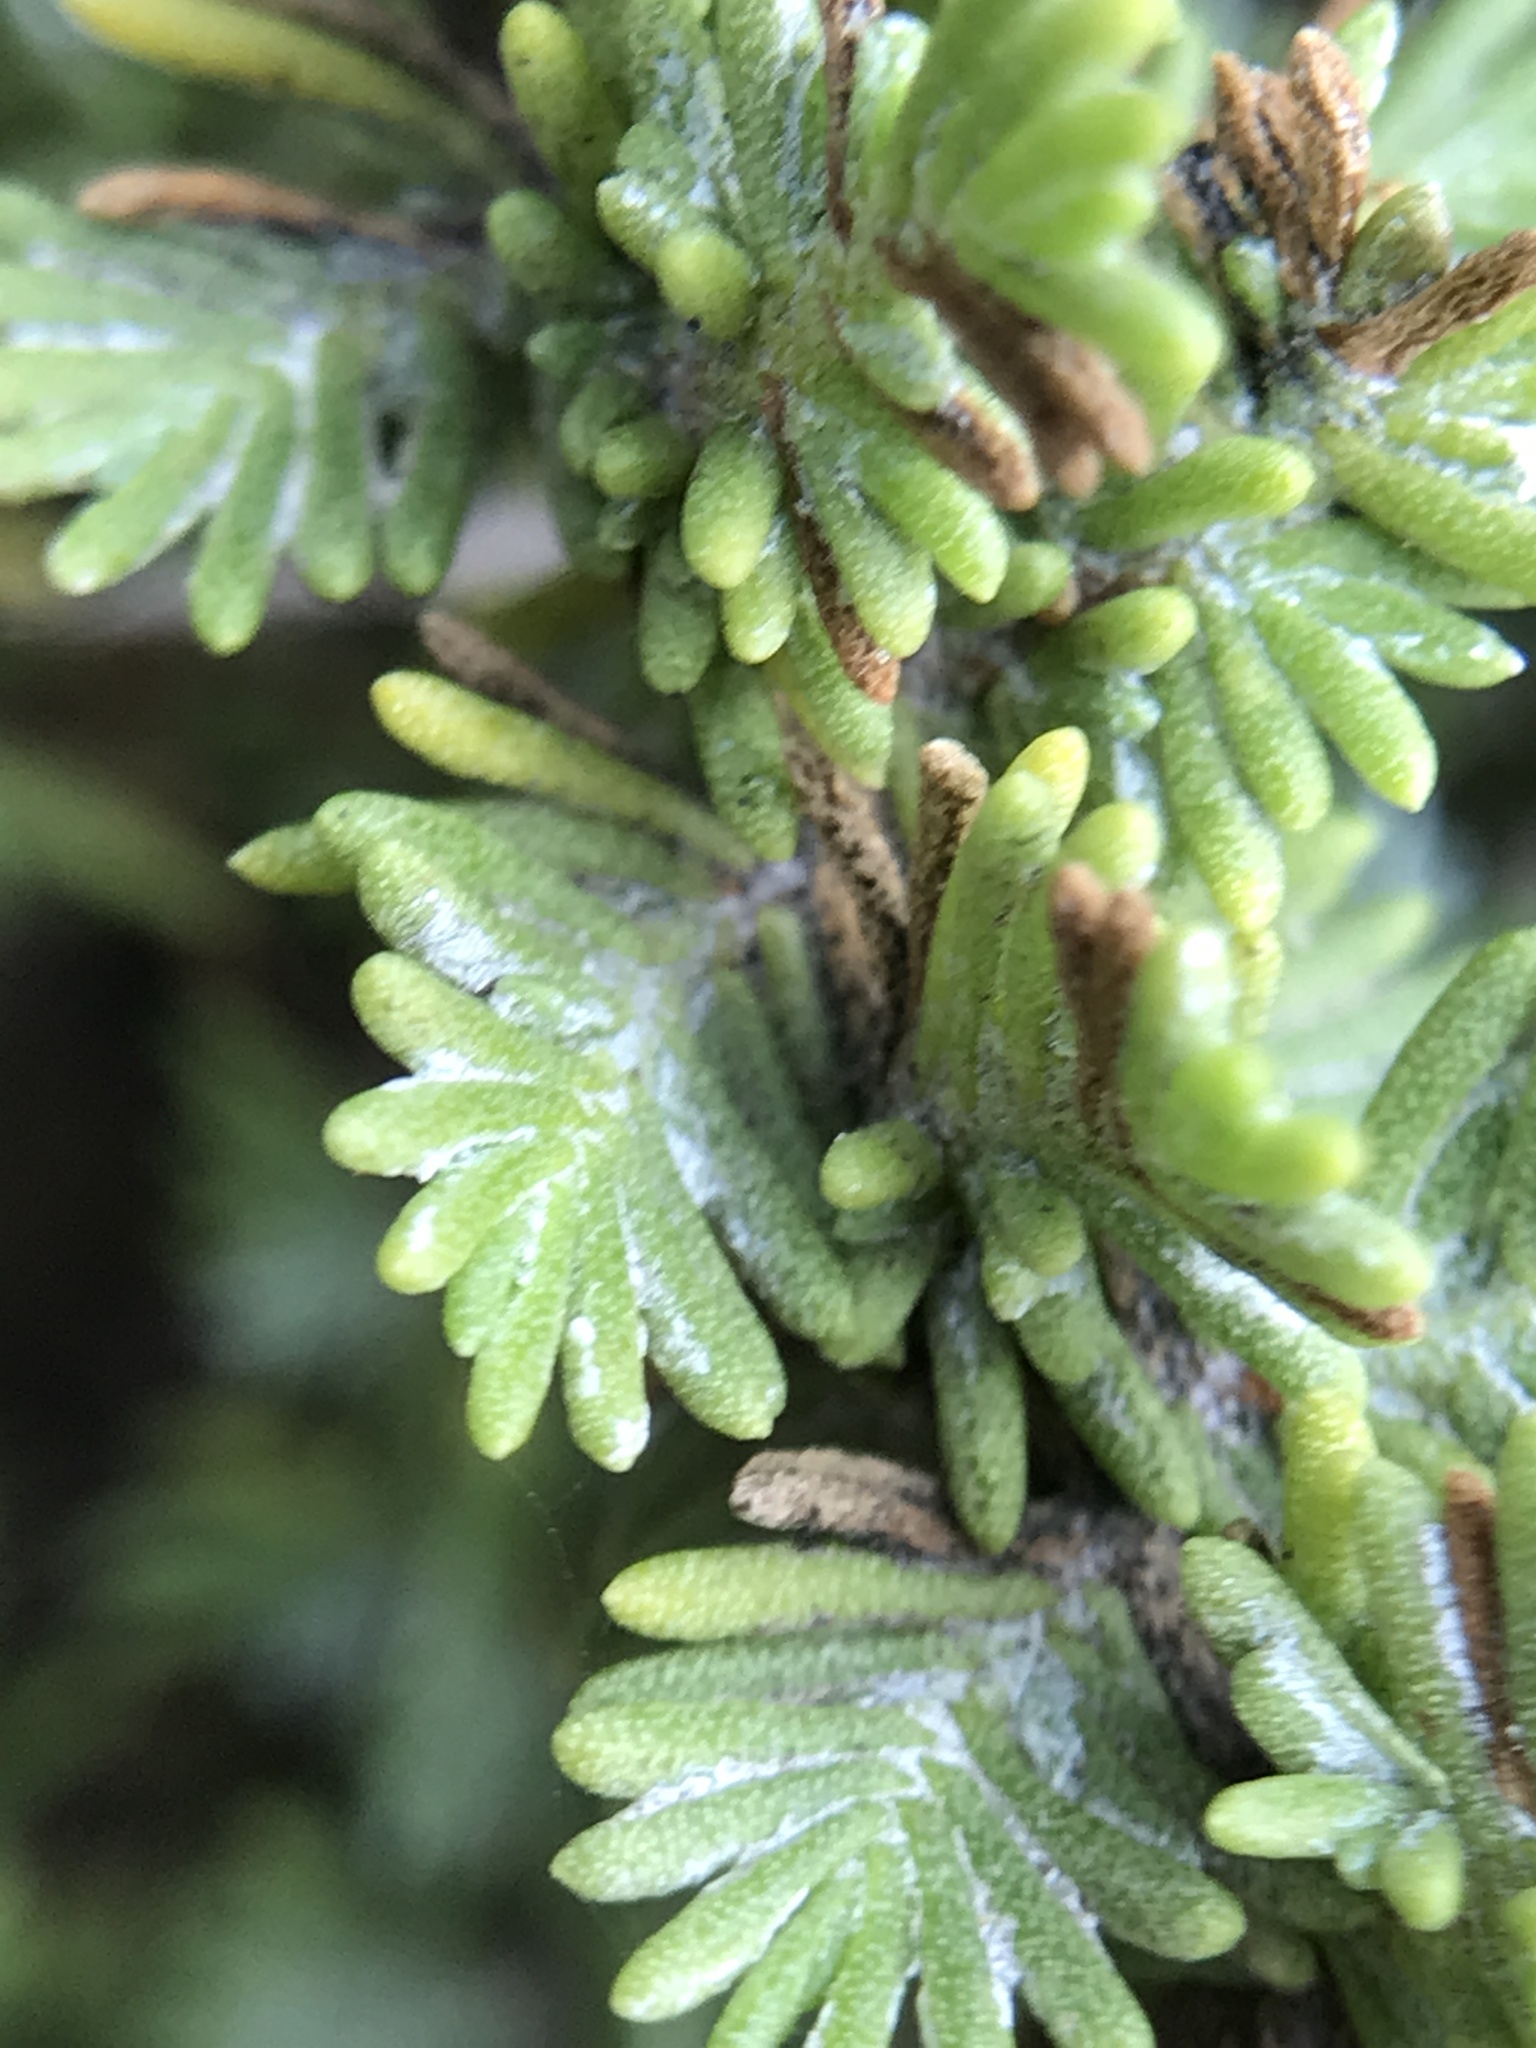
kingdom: Plantae
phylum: Tracheophyta
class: Magnoliopsida
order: Asterales
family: Asteraceae
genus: Ericameria
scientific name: Ericameria ericoides
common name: California goldenbush
